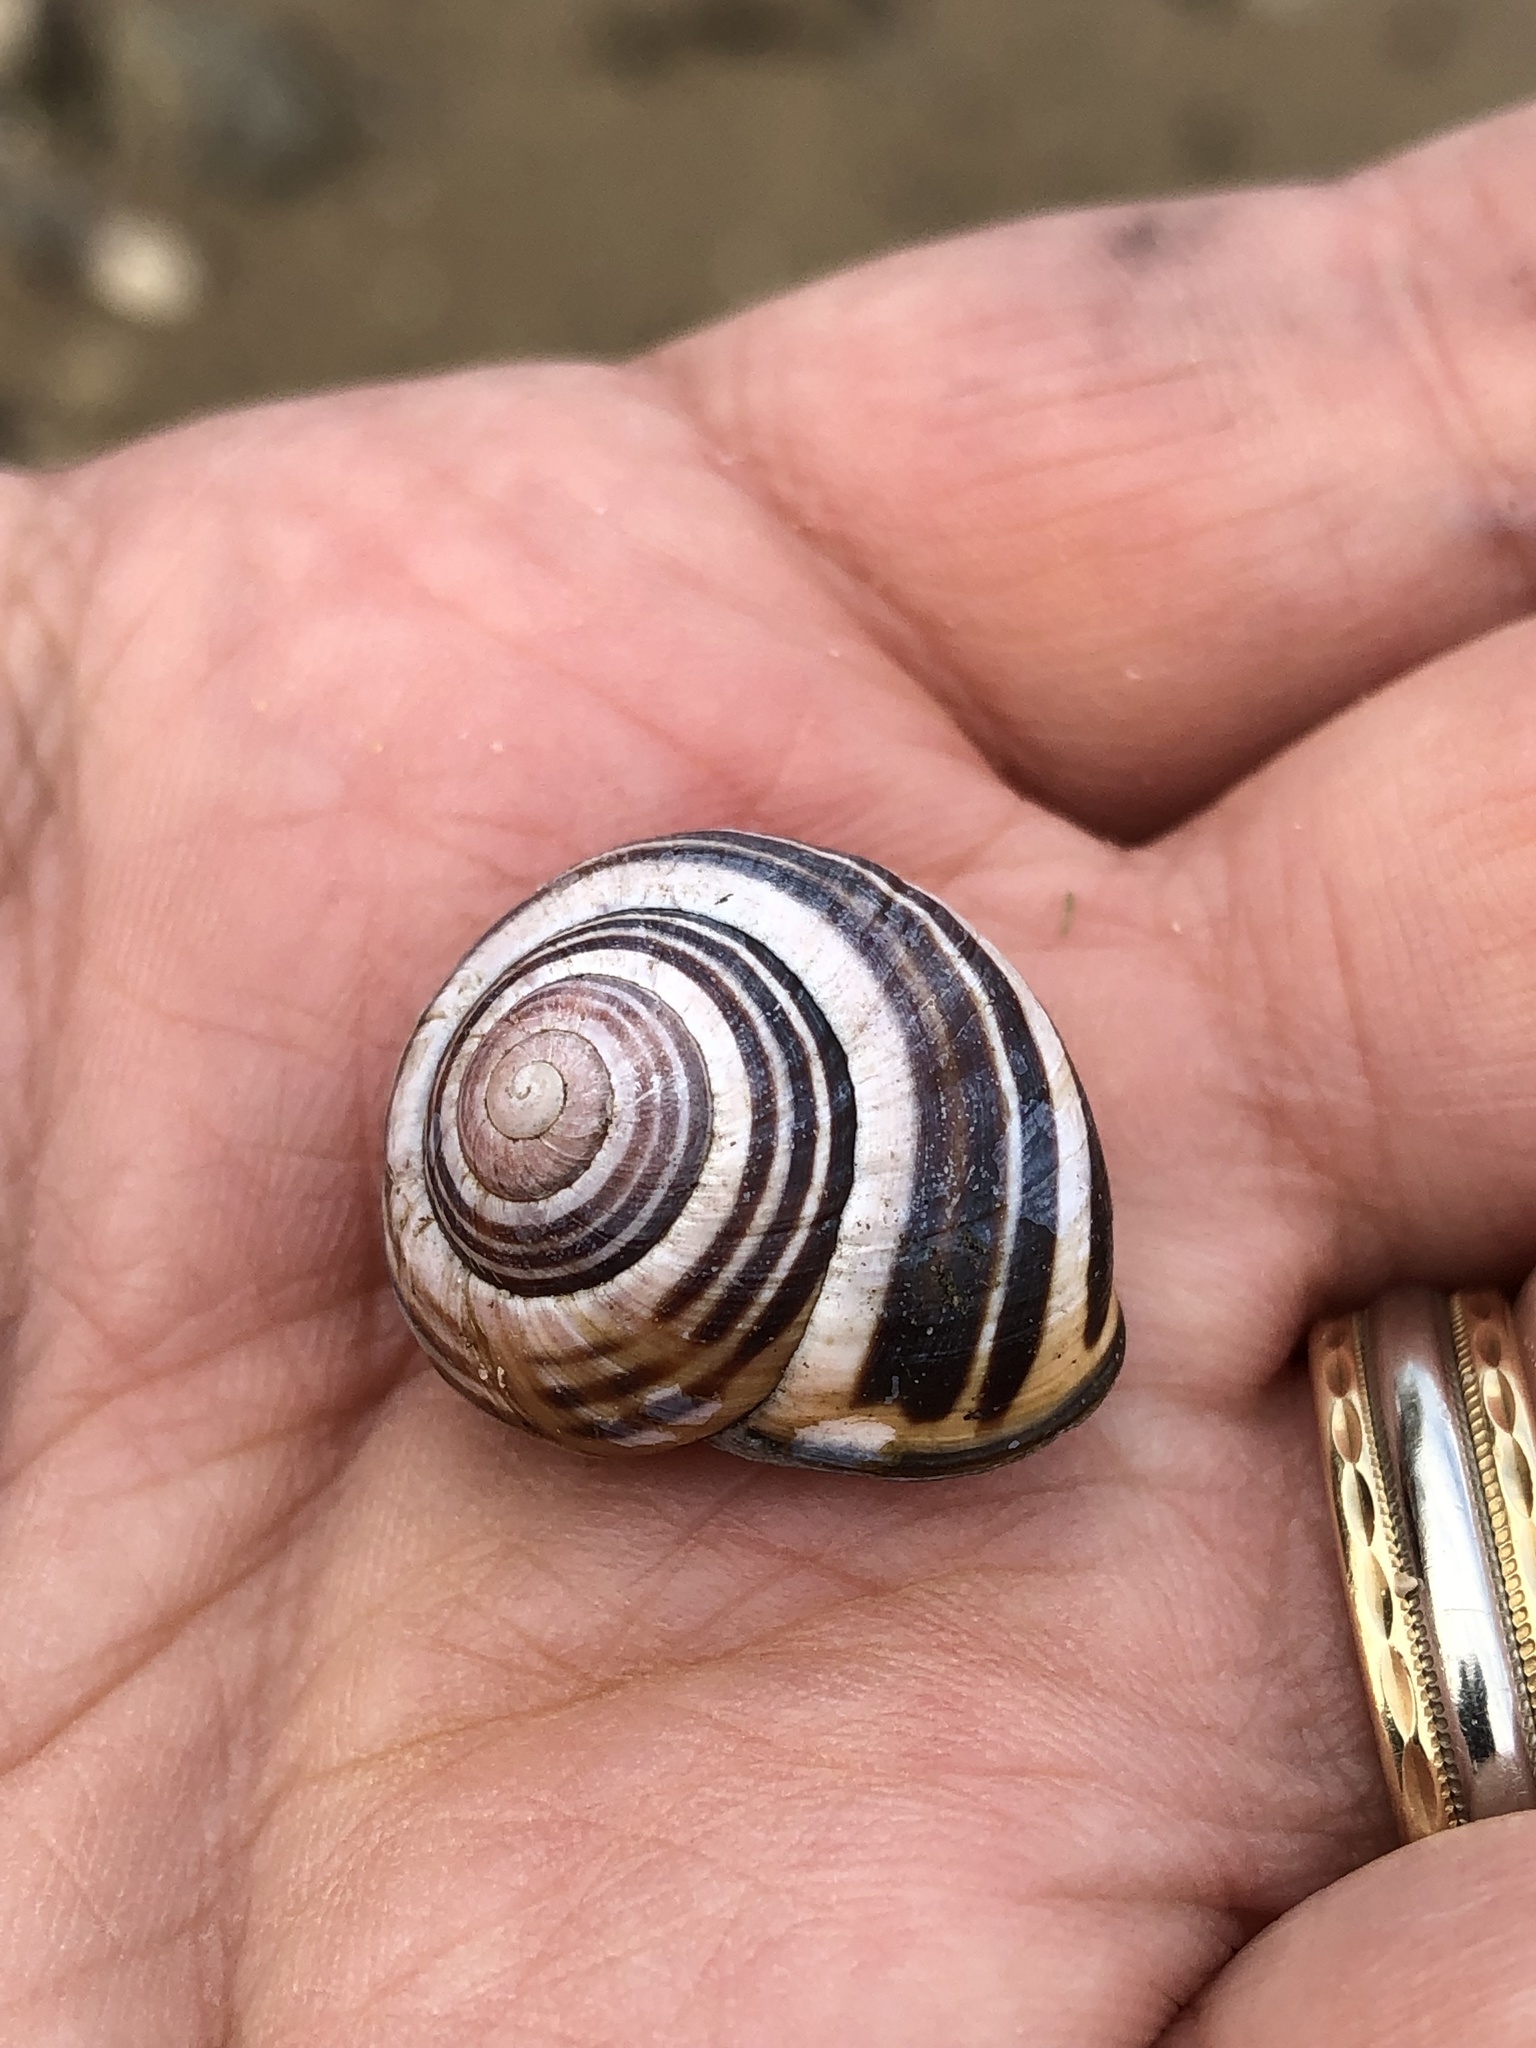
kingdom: Animalia
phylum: Mollusca
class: Gastropoda
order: Stylommatophora
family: Helicidae
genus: Cepaea
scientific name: Cepaea nemoralis
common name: Grovesnail
